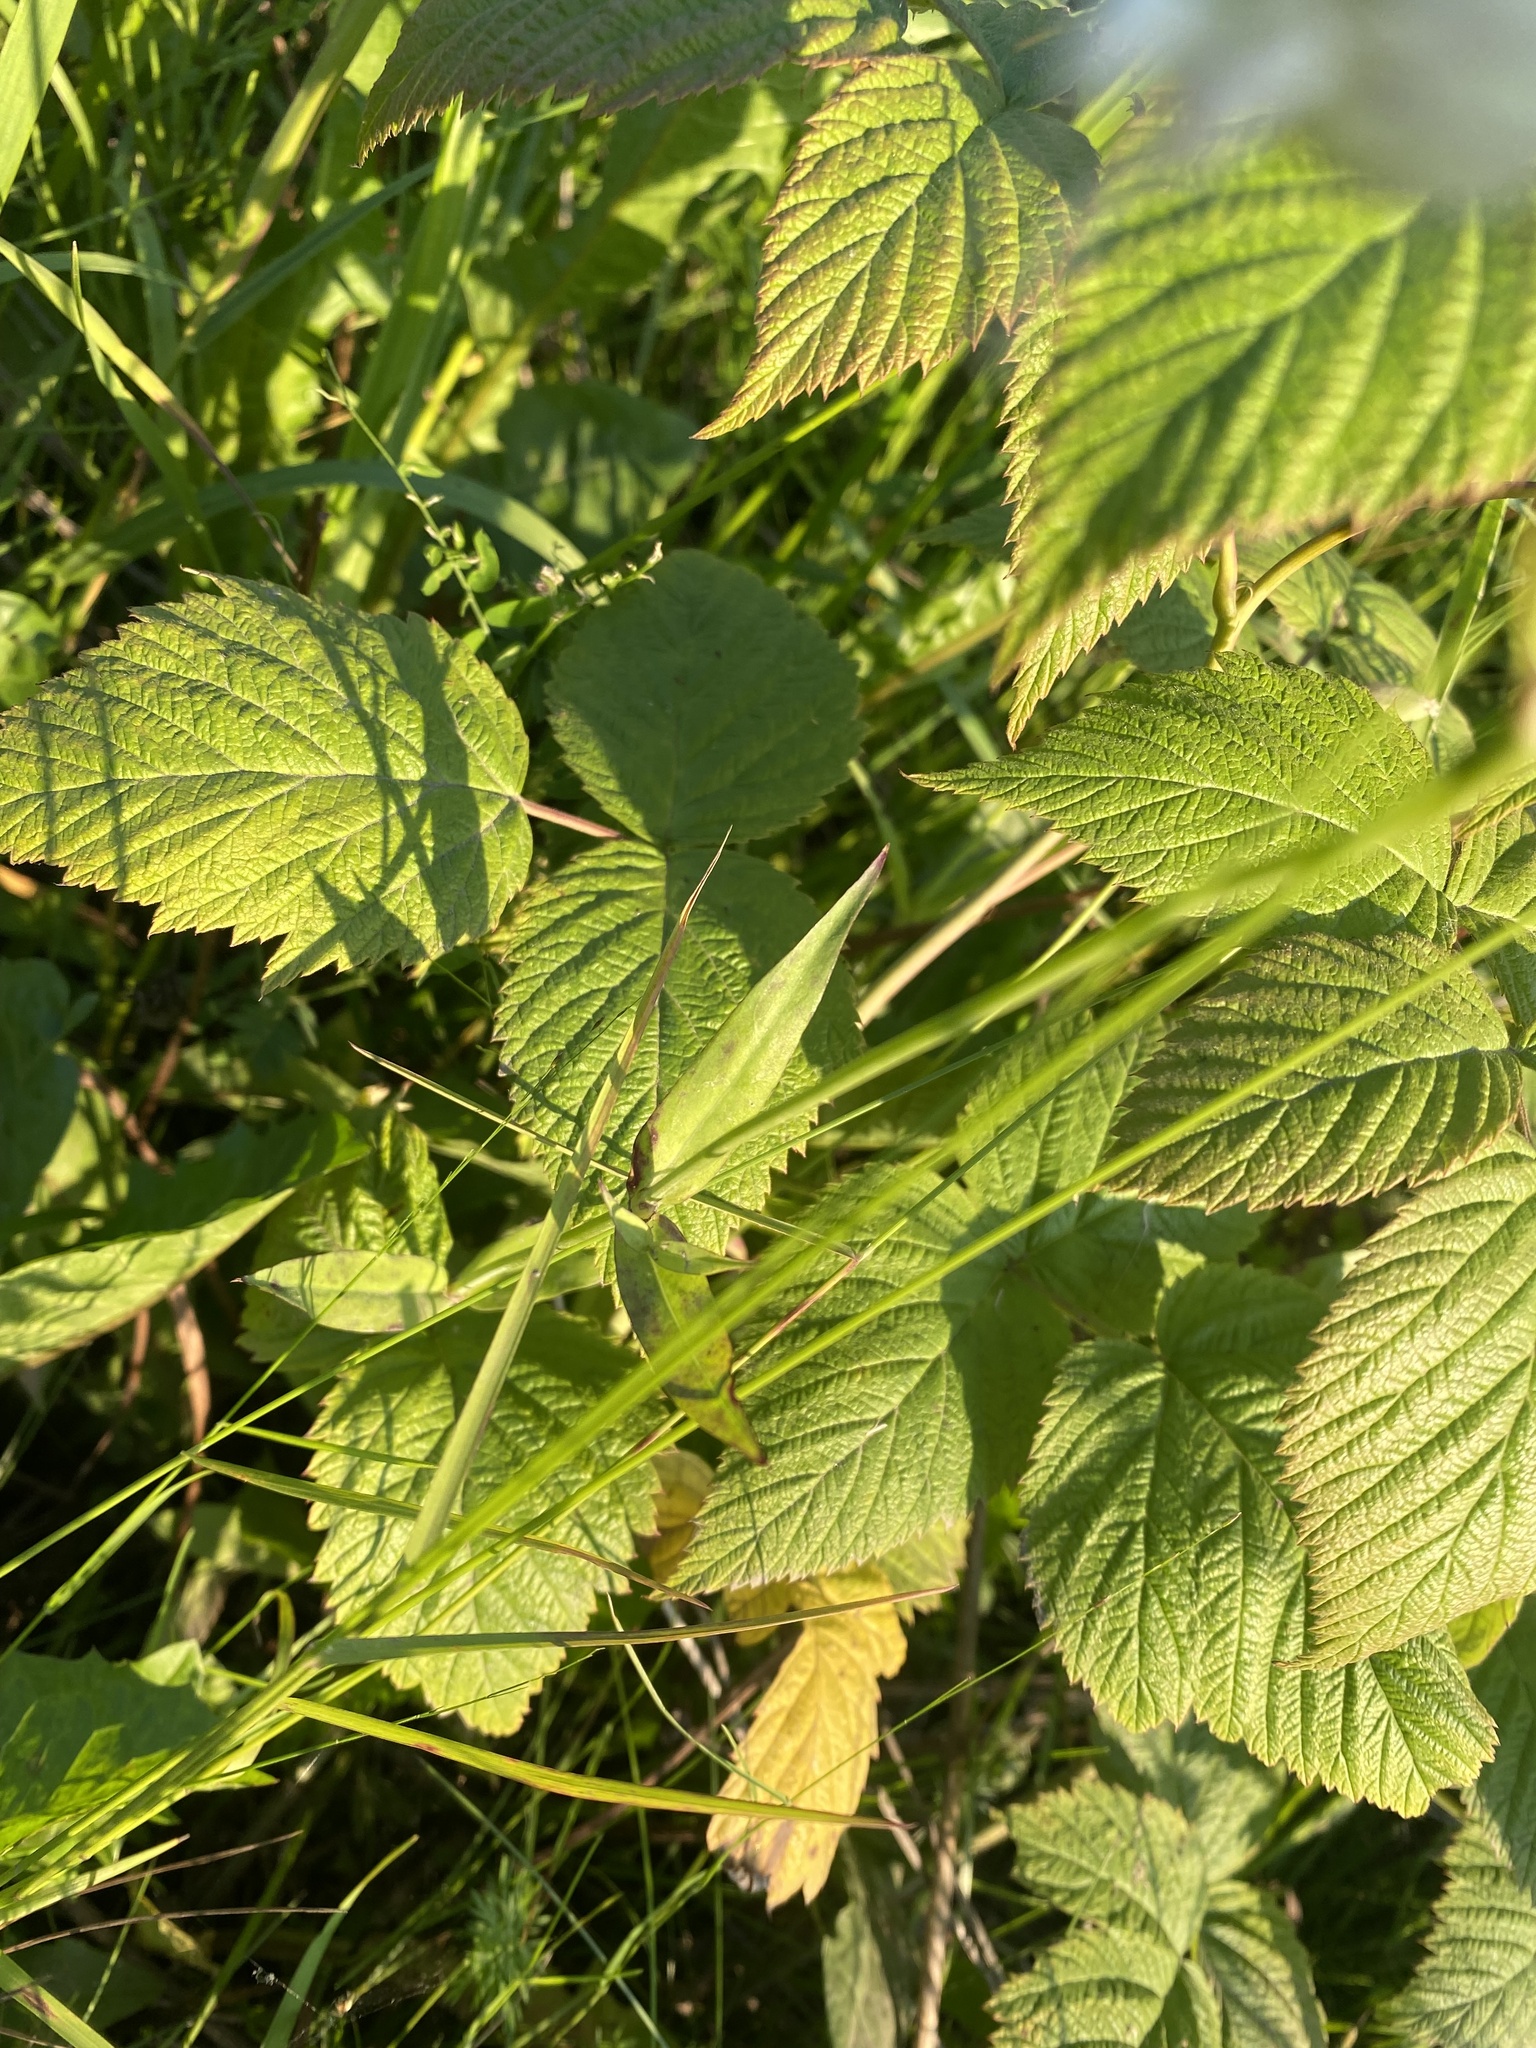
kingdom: Plantae
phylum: Tracheophyta
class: Magnoliopsida
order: Caryophyllales
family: Caryophyllaceae
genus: Silene
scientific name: Silene vulgaris
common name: Bladder campion
